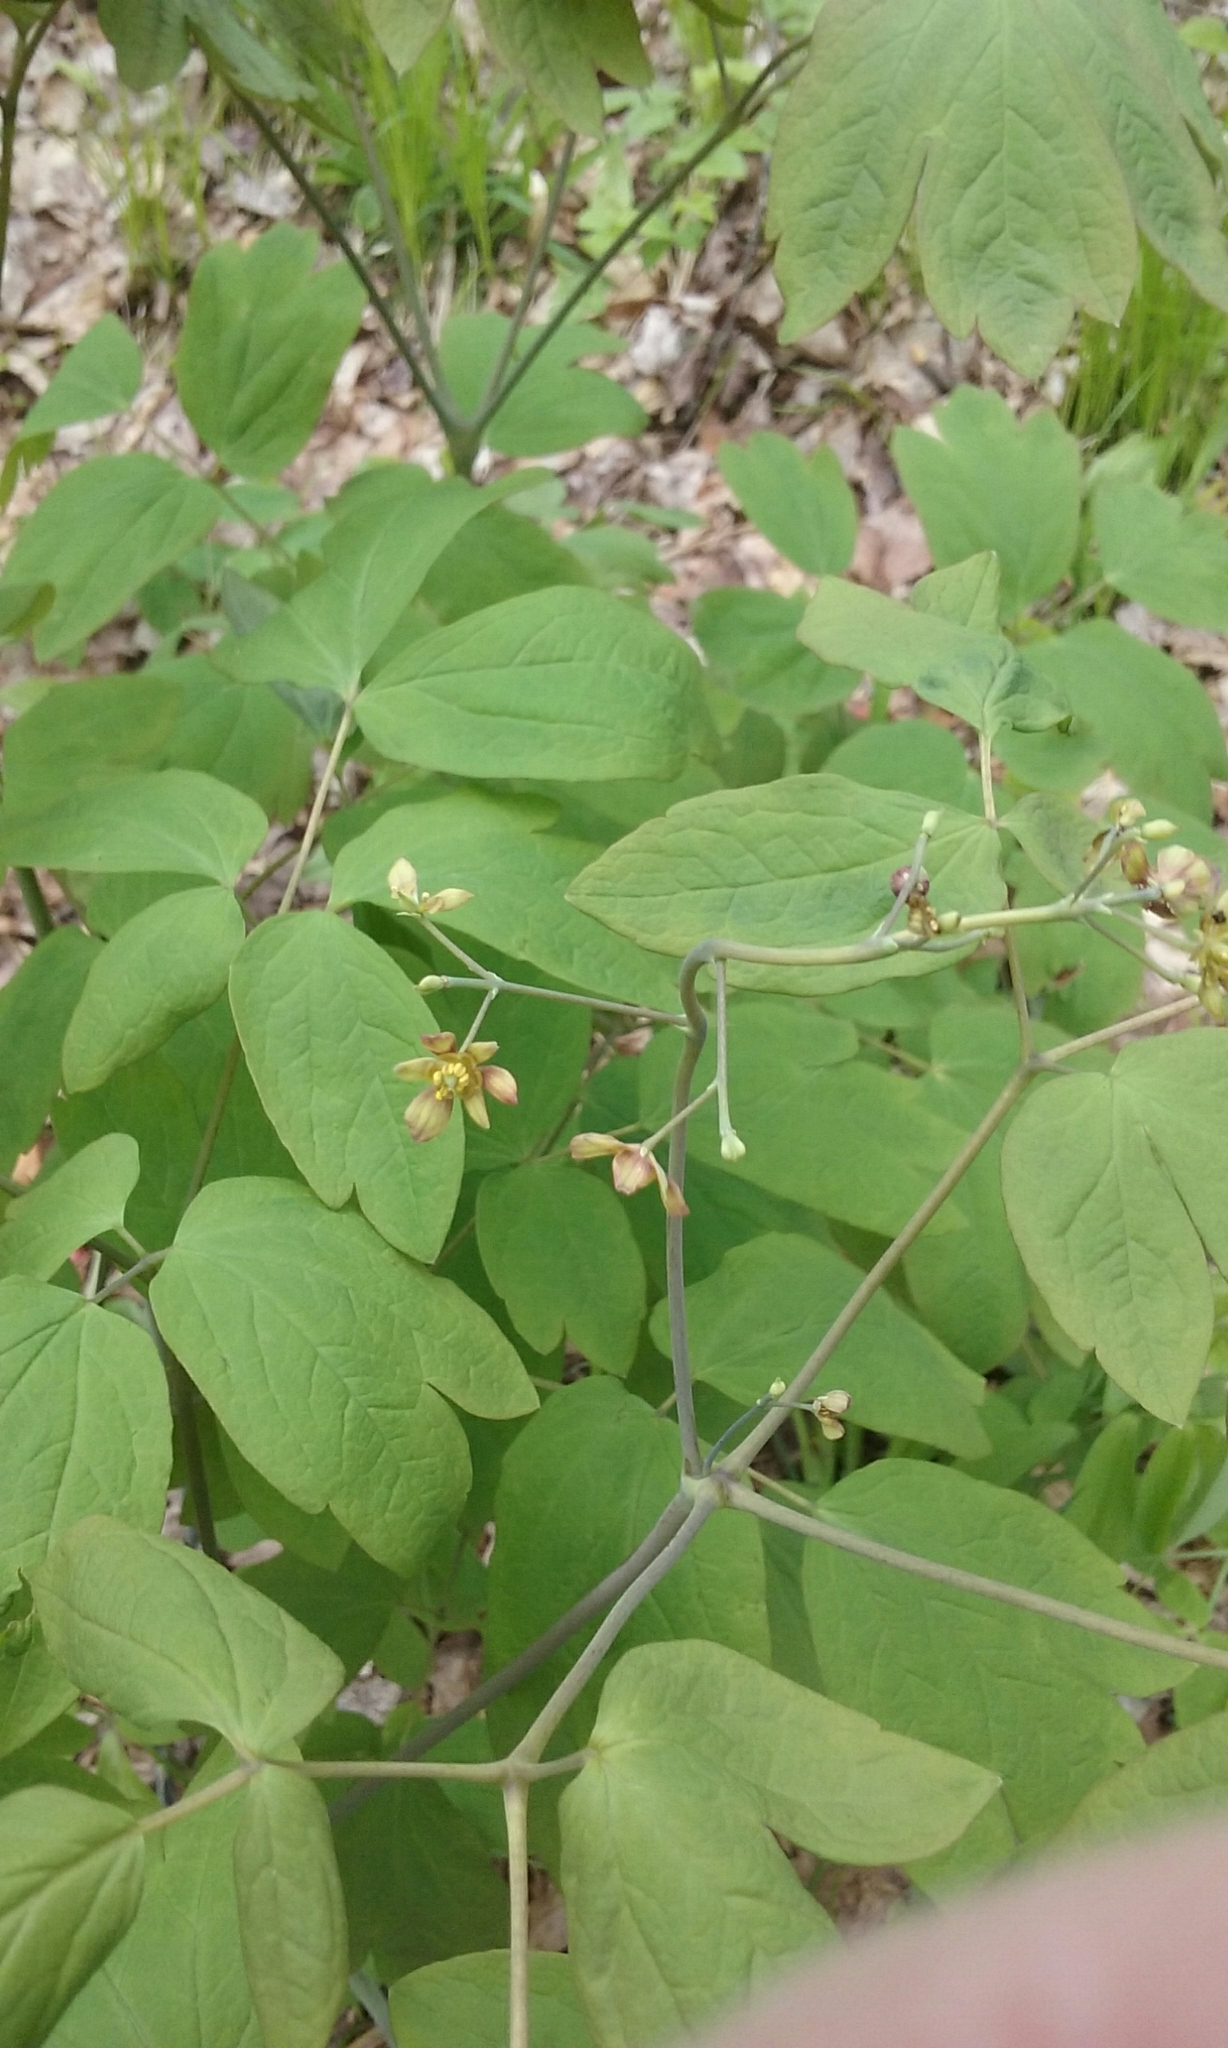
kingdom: Plantae
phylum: Tracheophyta
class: Magnoliopsida
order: Ranunculales
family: Berberidaceae
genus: Caulophyllum
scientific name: Caulophyllum thalictroides
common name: Blue cohosh
